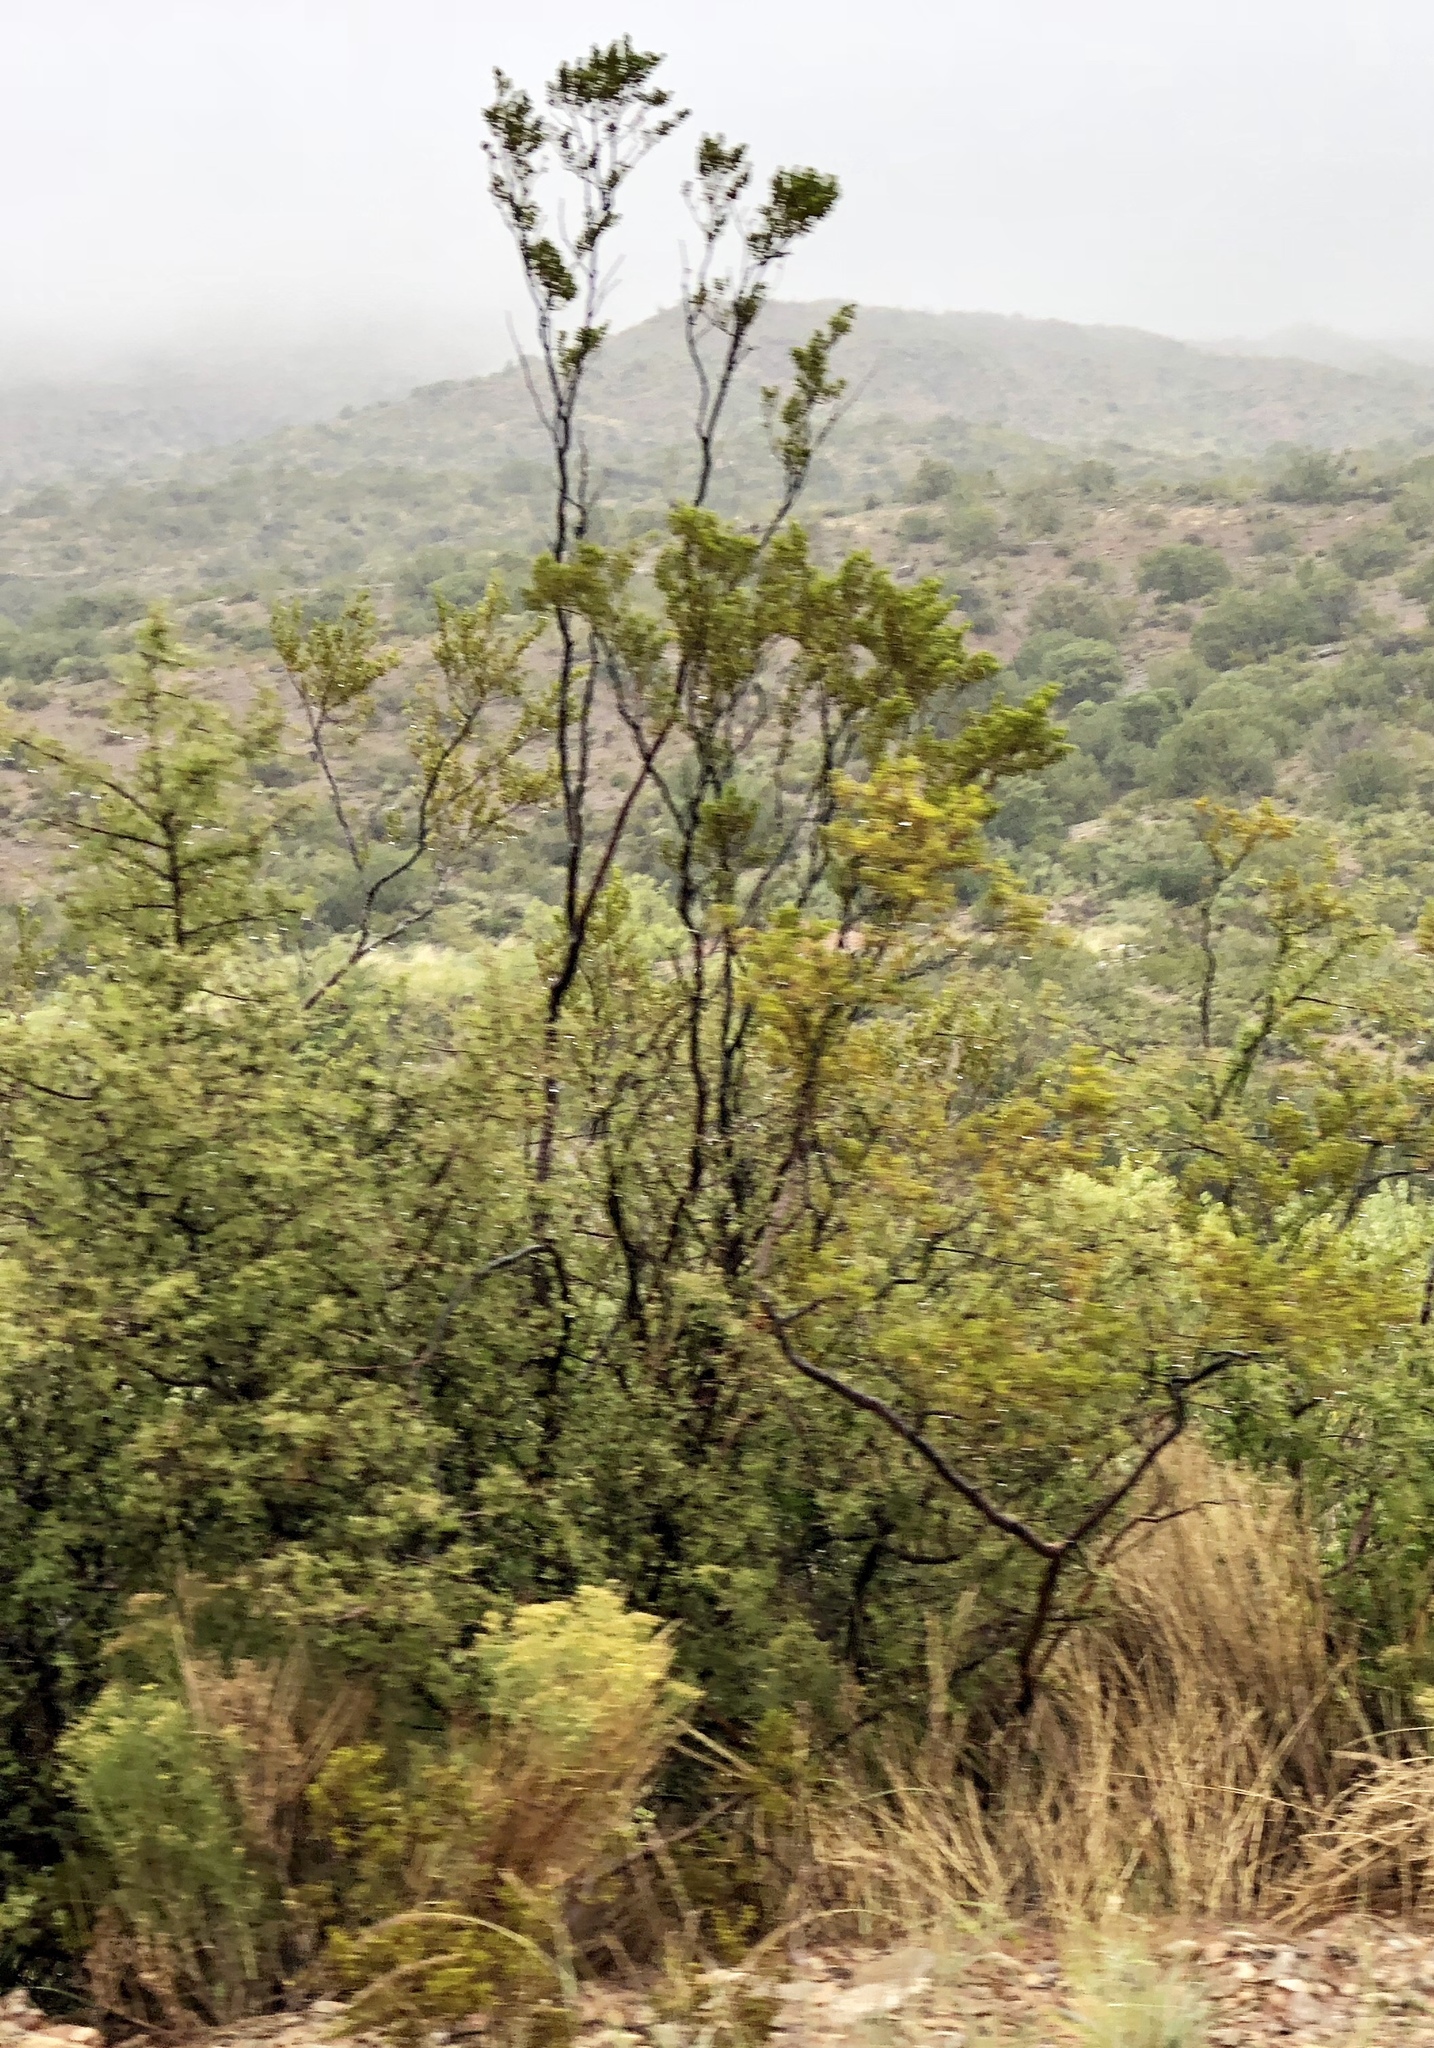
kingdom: Plantae
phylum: Tracheophyta
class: Magnoliopsida
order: Zygophyllales
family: Zygophyllaceae
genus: Larrea
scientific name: Larrea tridentata
